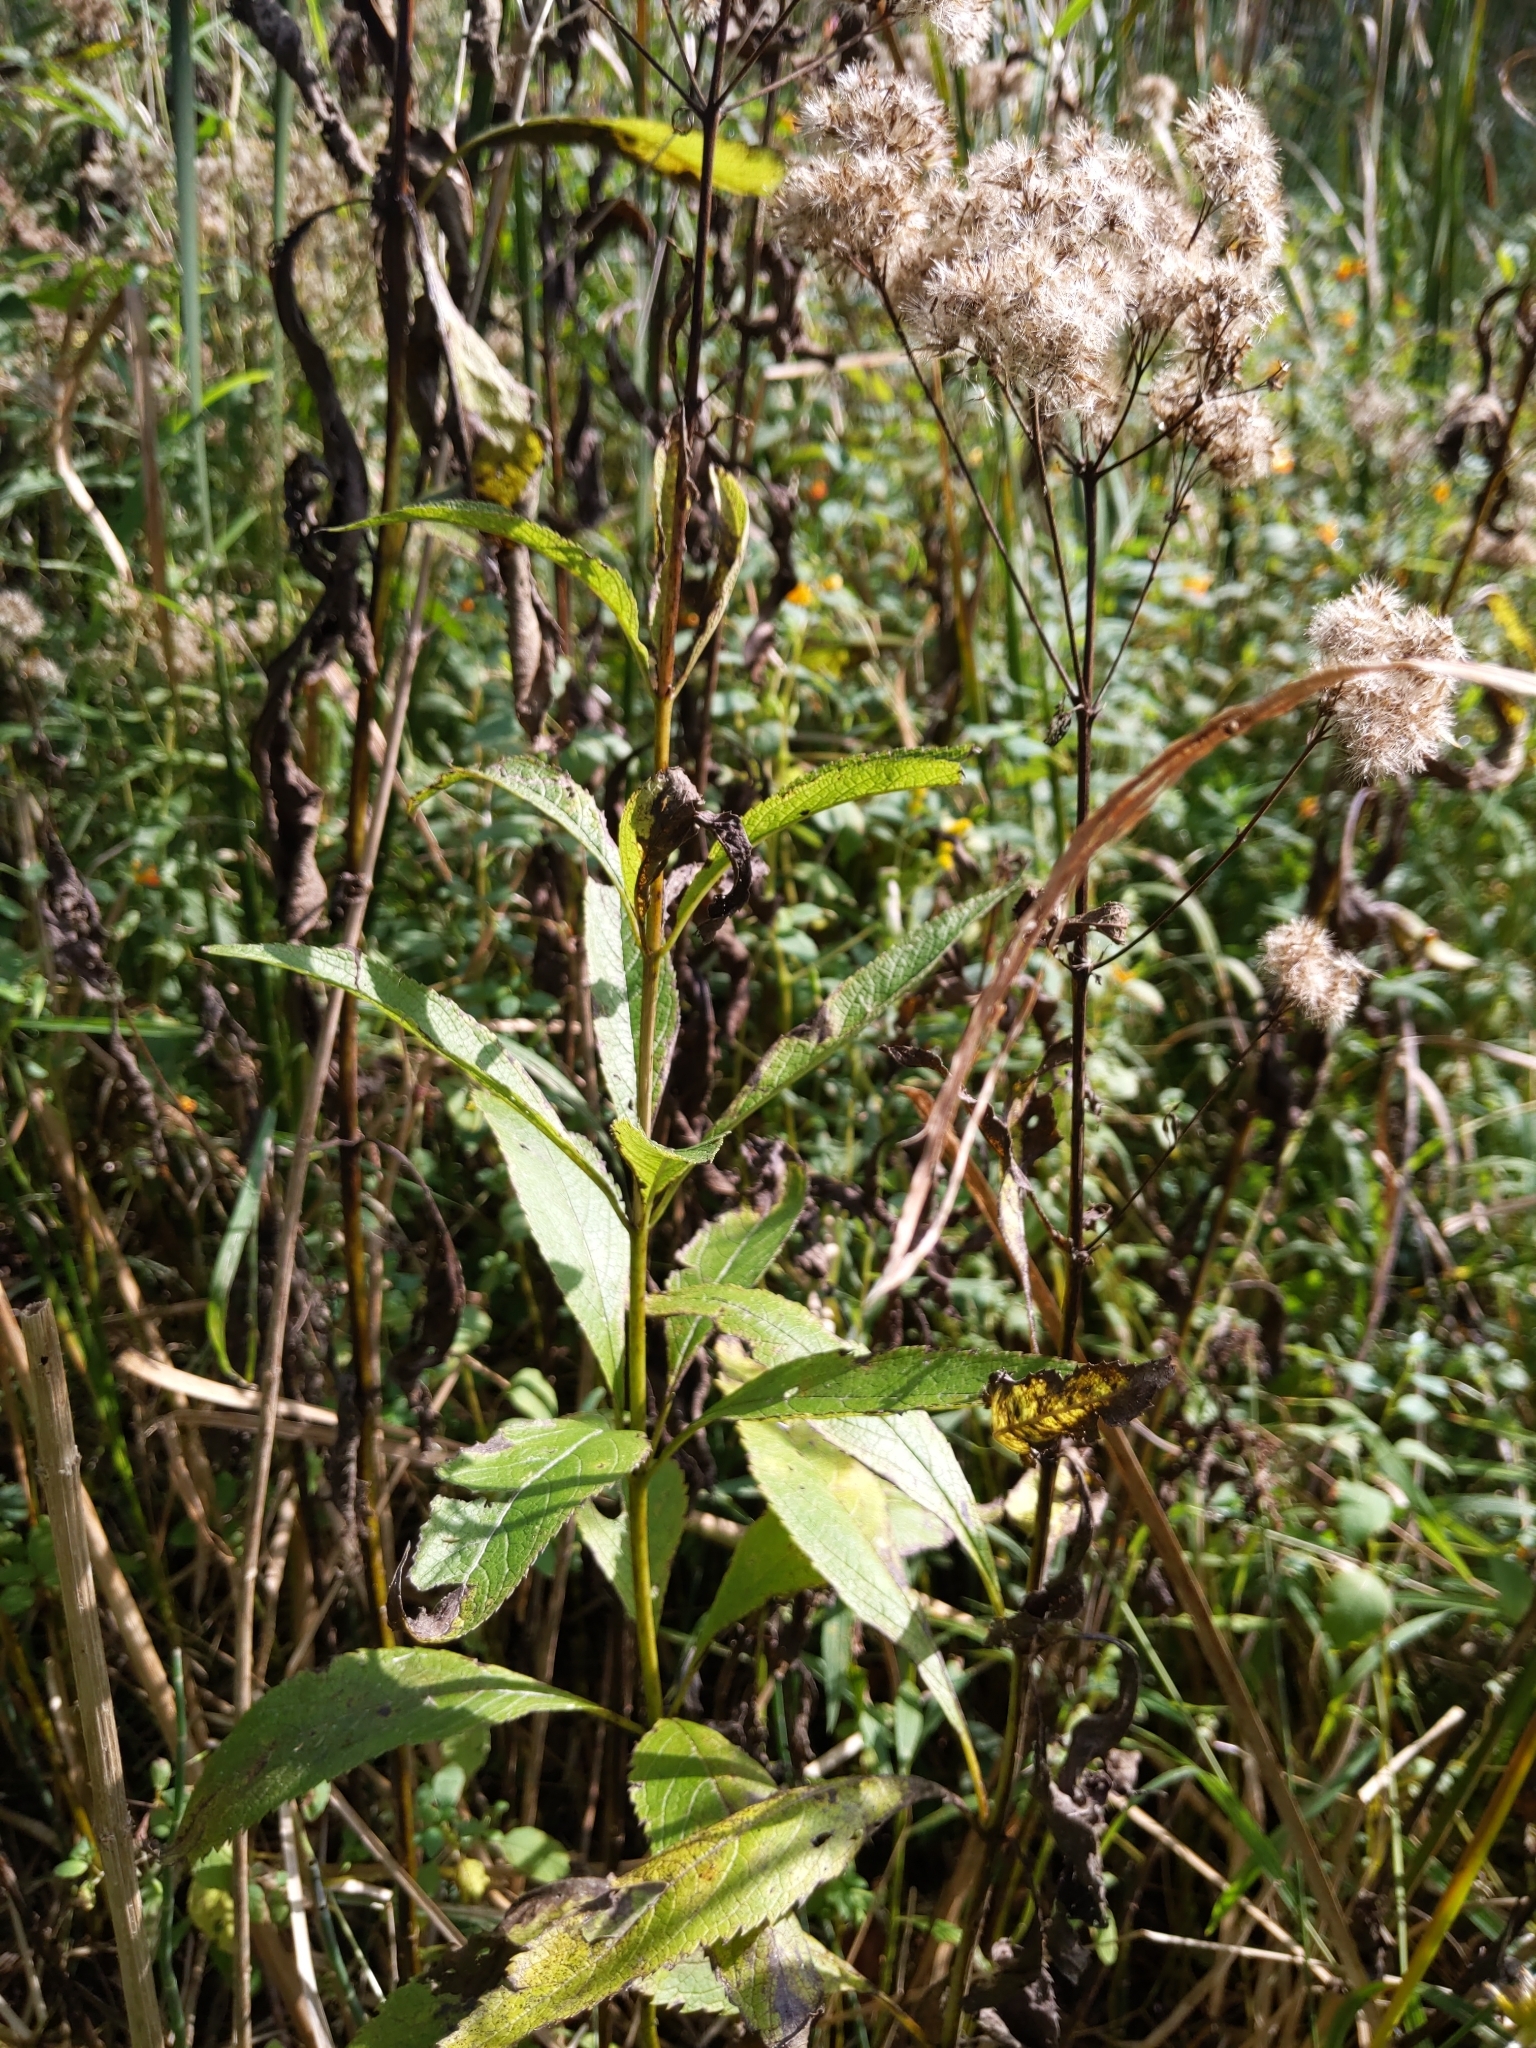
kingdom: Plantae
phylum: Tracheophyta
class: Magnoliopsida
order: Asterales
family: Asteraceae
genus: Eutrochium
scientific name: Eutrochium maculatum
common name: Spotted joe pye weed
